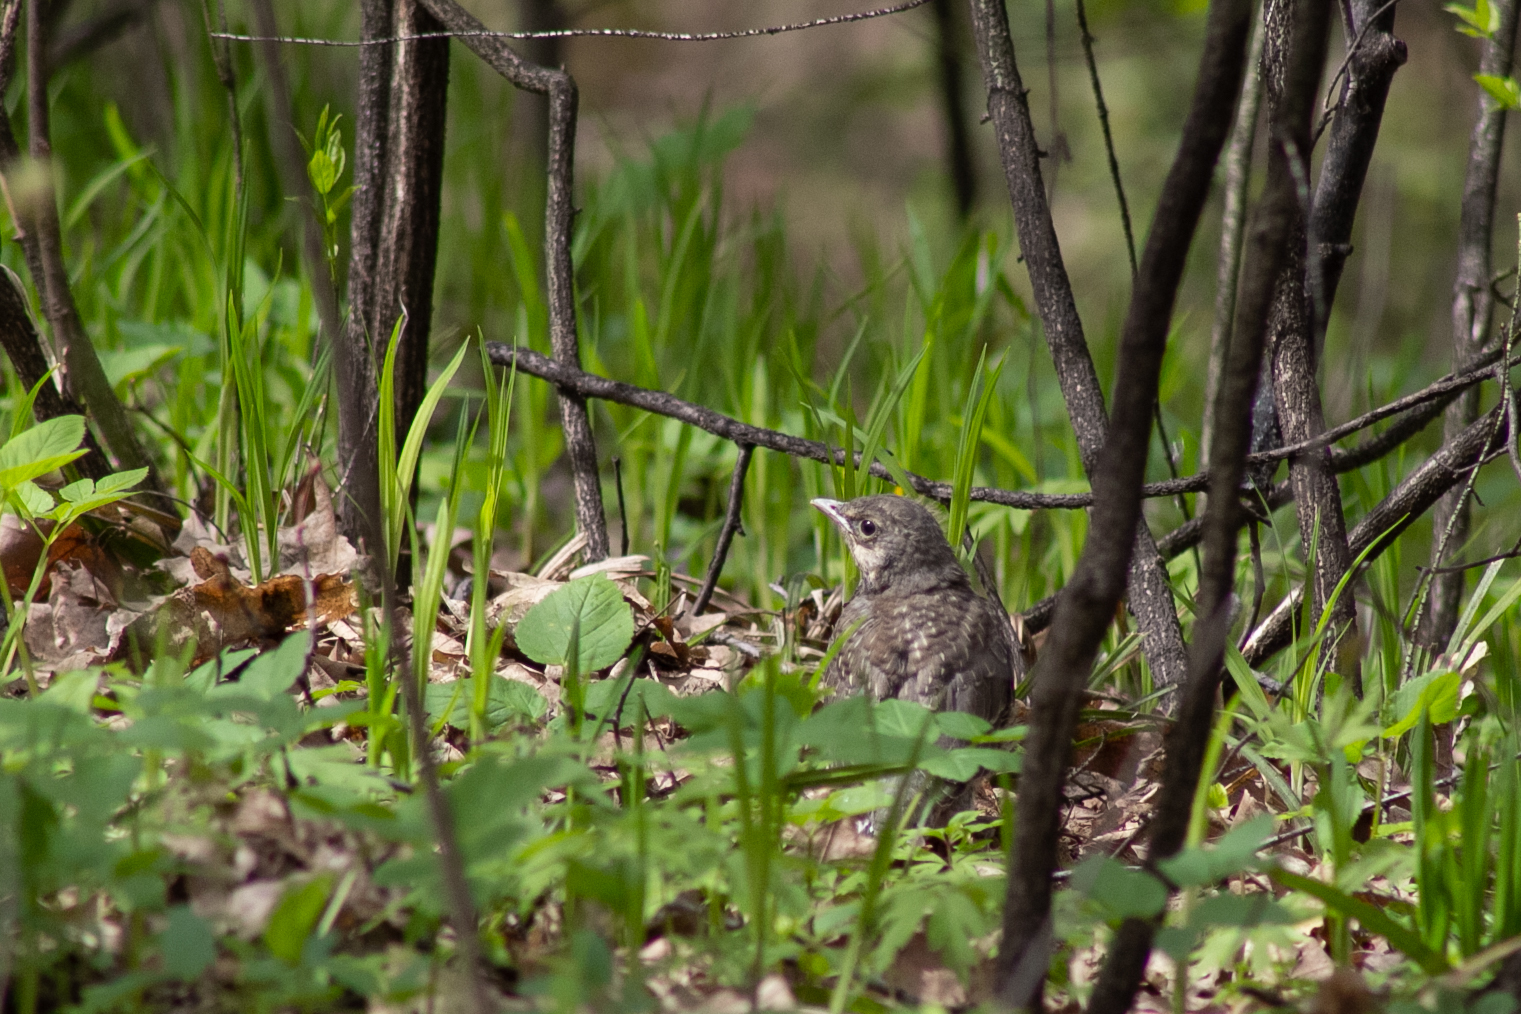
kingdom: Animalia
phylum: Chordata
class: Aves
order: Passeriformes
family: Turdidae
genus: Turdus
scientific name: Turdus pilaris
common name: Fieldfare
